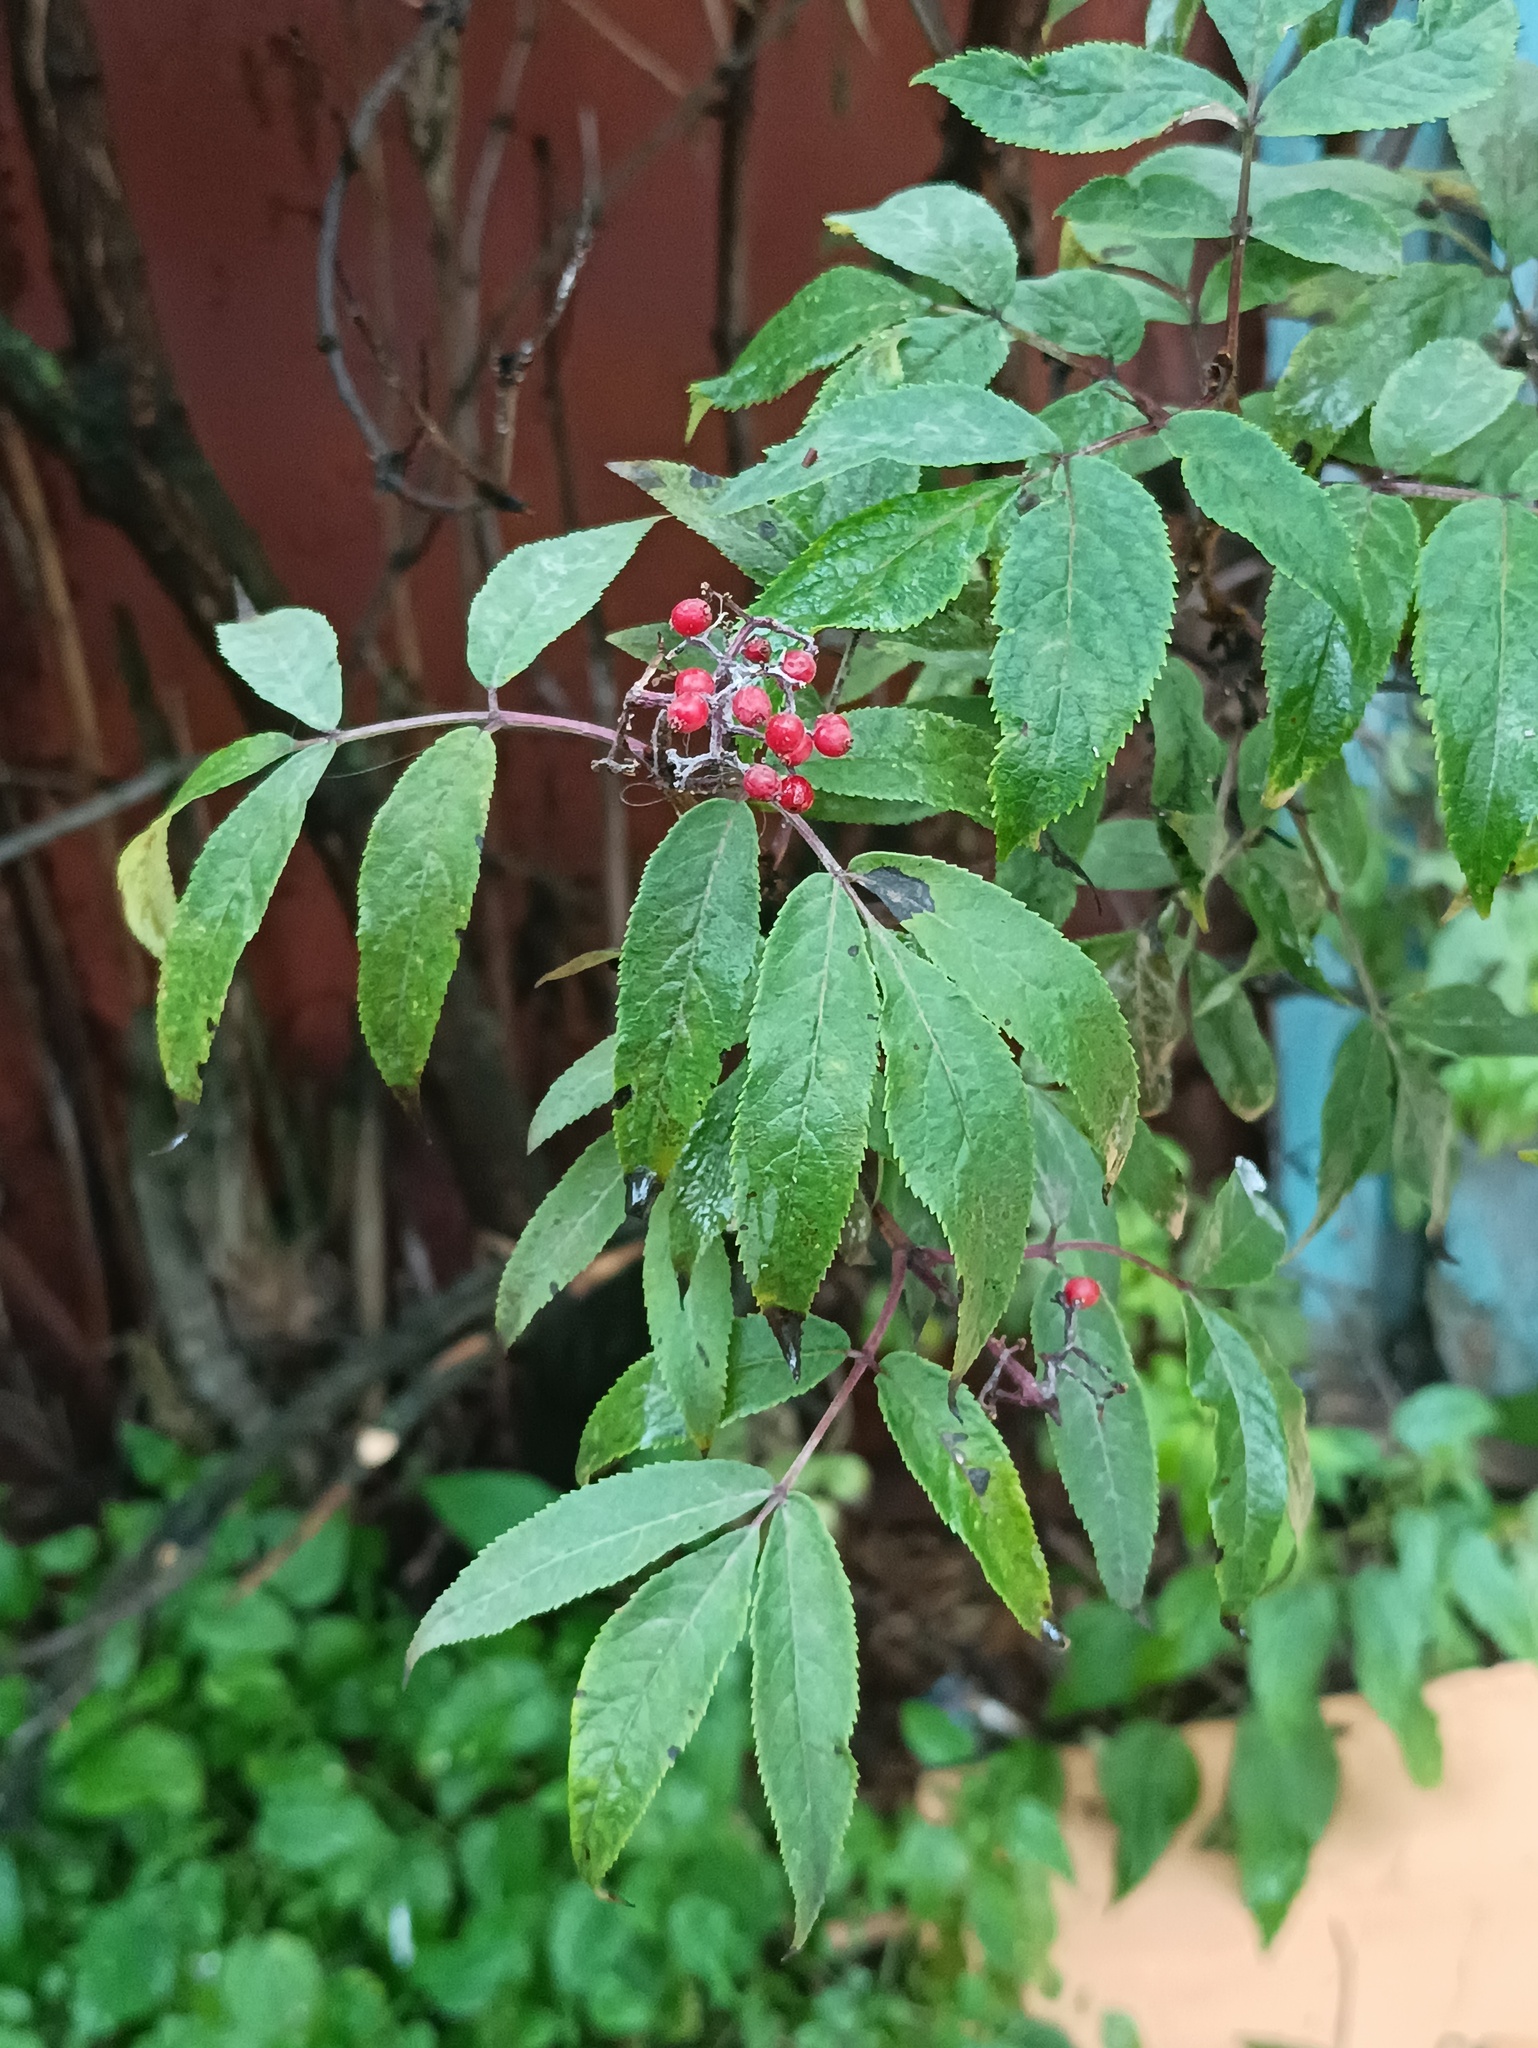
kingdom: Plantae
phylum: Tracheophyta
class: Magnoliopsida
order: Dipsacales
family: Viburnaceae
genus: Sambucus
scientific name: Sambucus racemosa
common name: Red-berried elder
